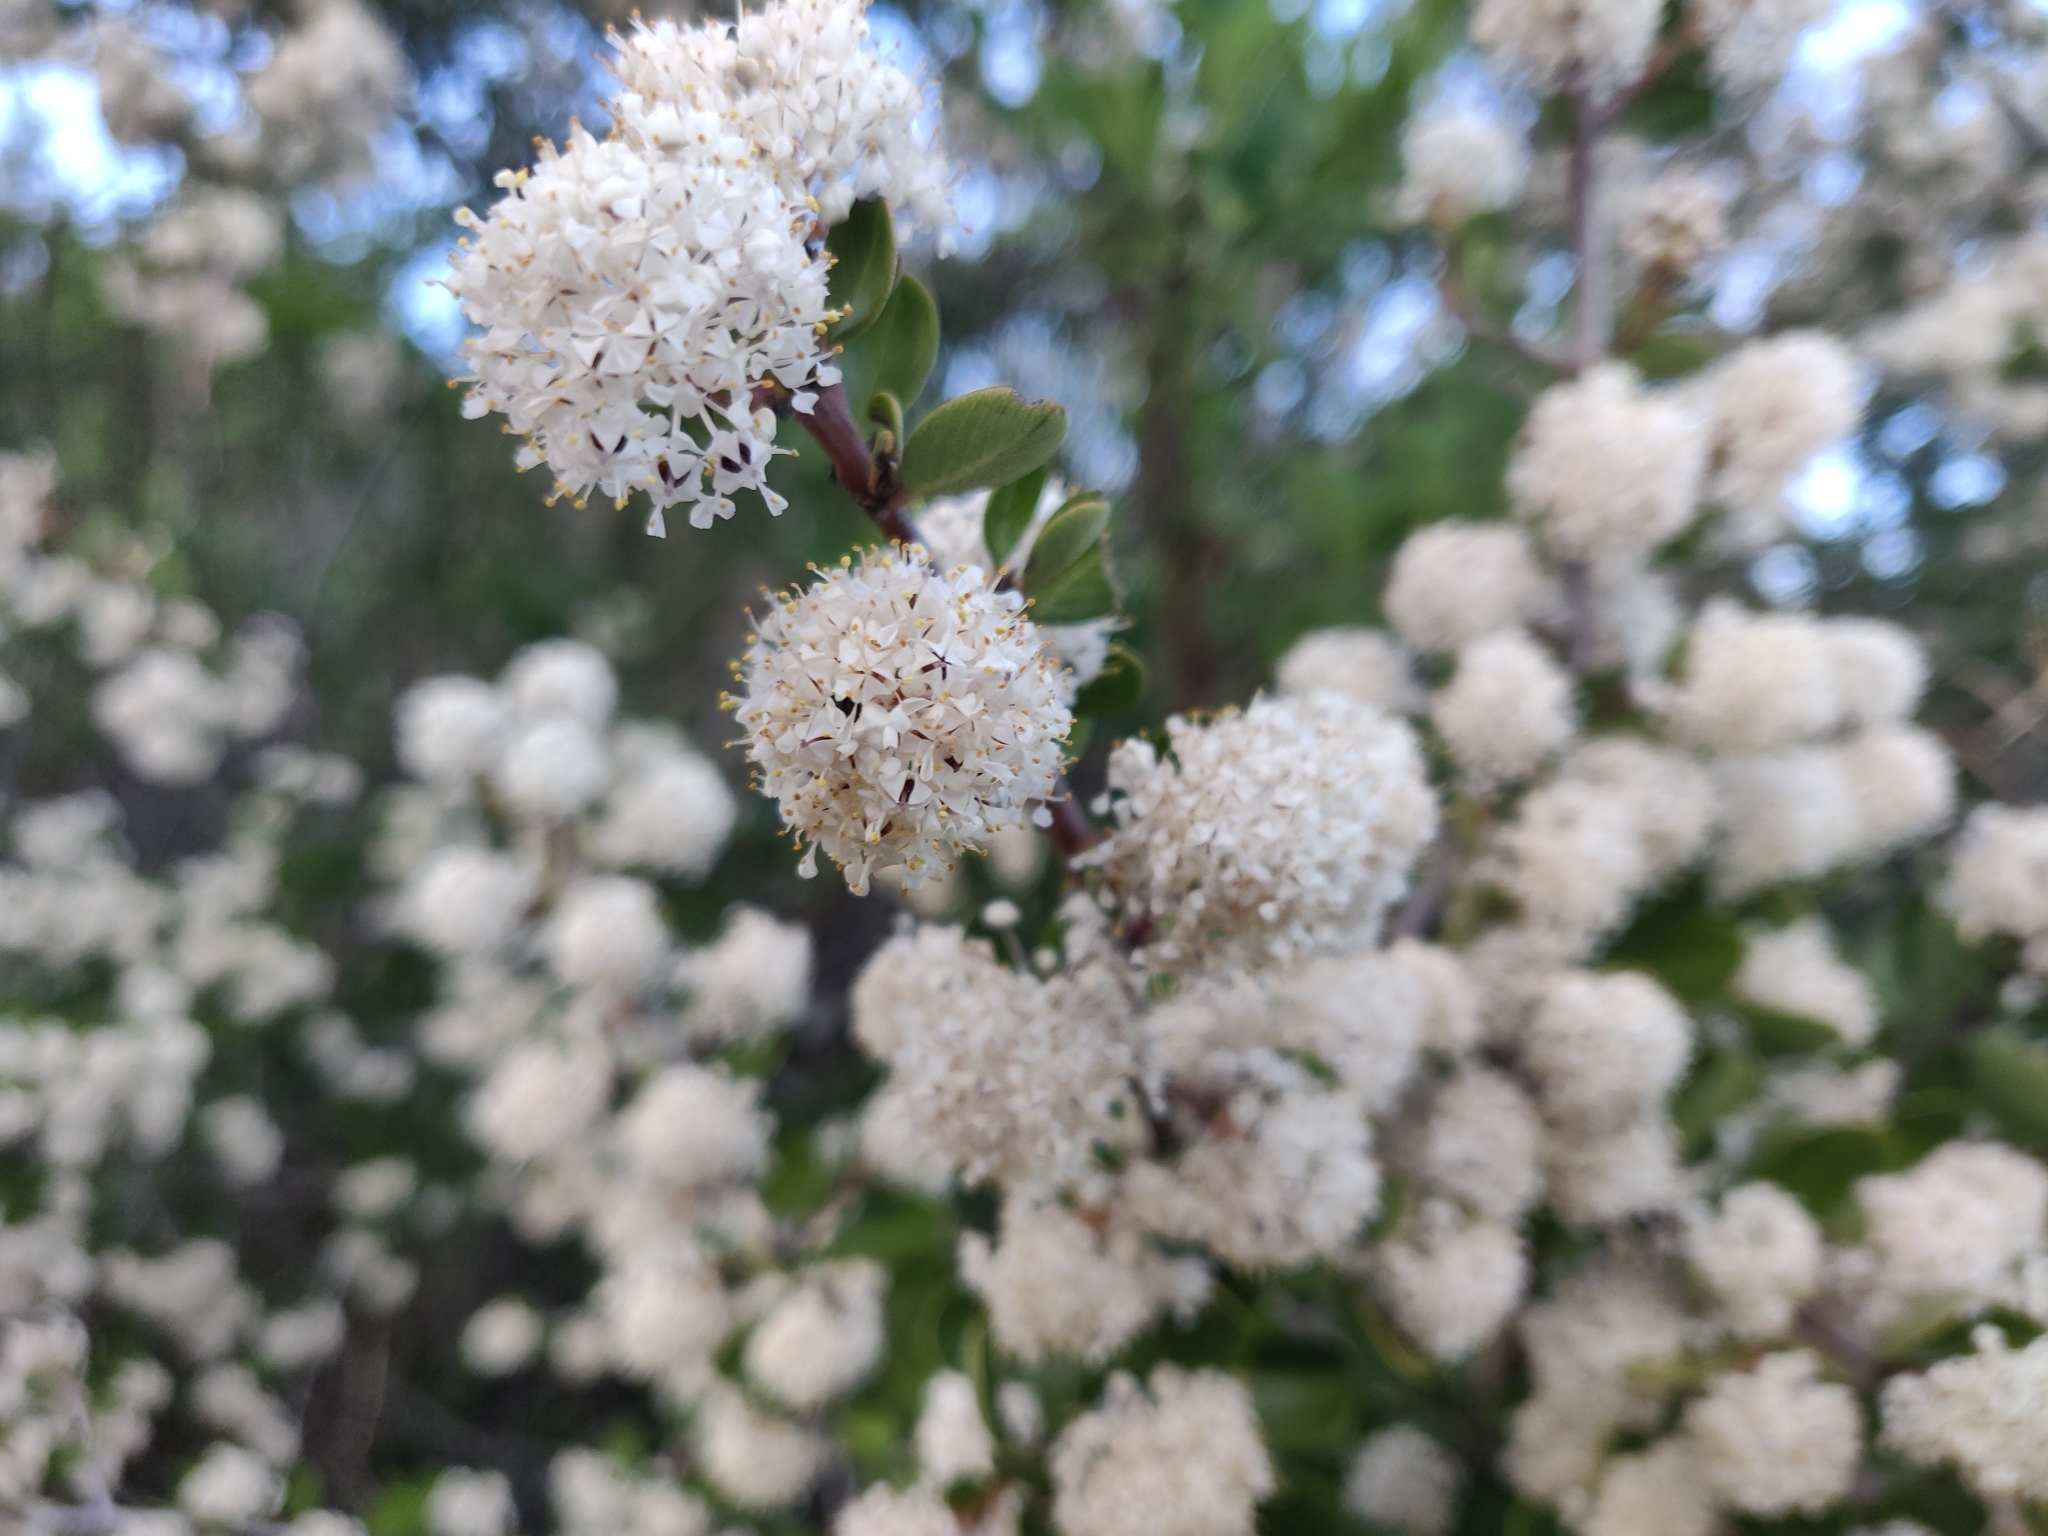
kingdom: Plantae
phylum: Tracheophyta
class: Magnoliopsida
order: Rosales
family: Rhamnaceae
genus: Ceanothus
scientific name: Ceanothus cuneatus
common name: Cuneate ceanothus
